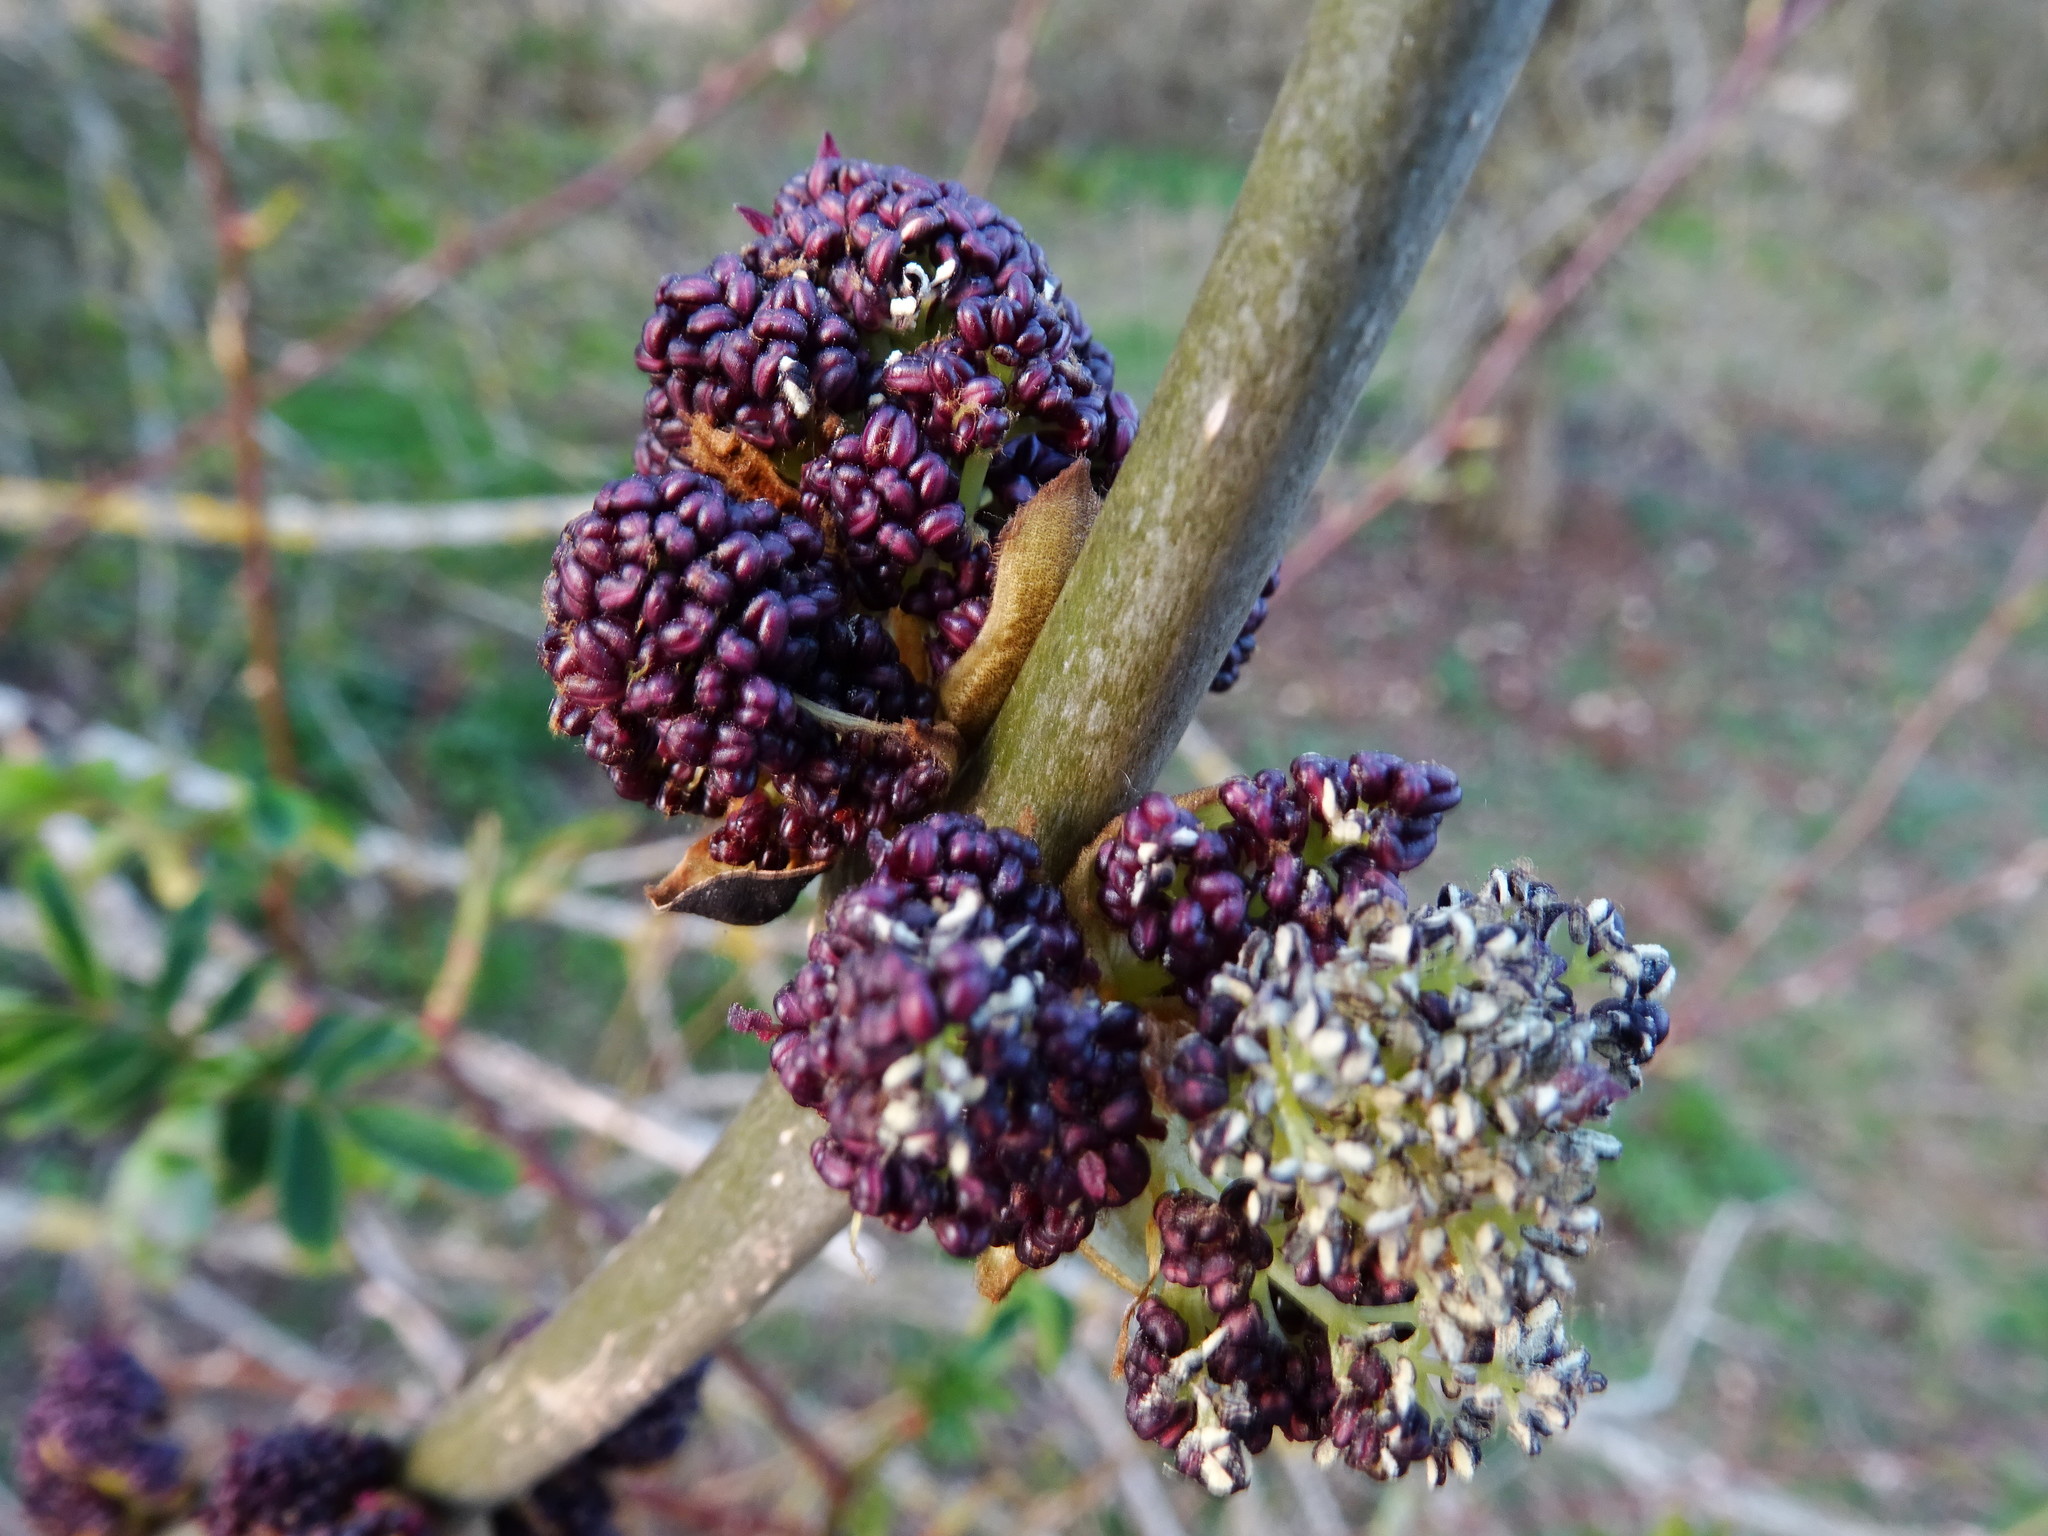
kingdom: Plantae
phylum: Tracheophyta
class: Magnoliopsida
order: Lamiales
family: Oleaceae
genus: Fraxinus
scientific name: Fraxinus excelsior
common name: European ash
